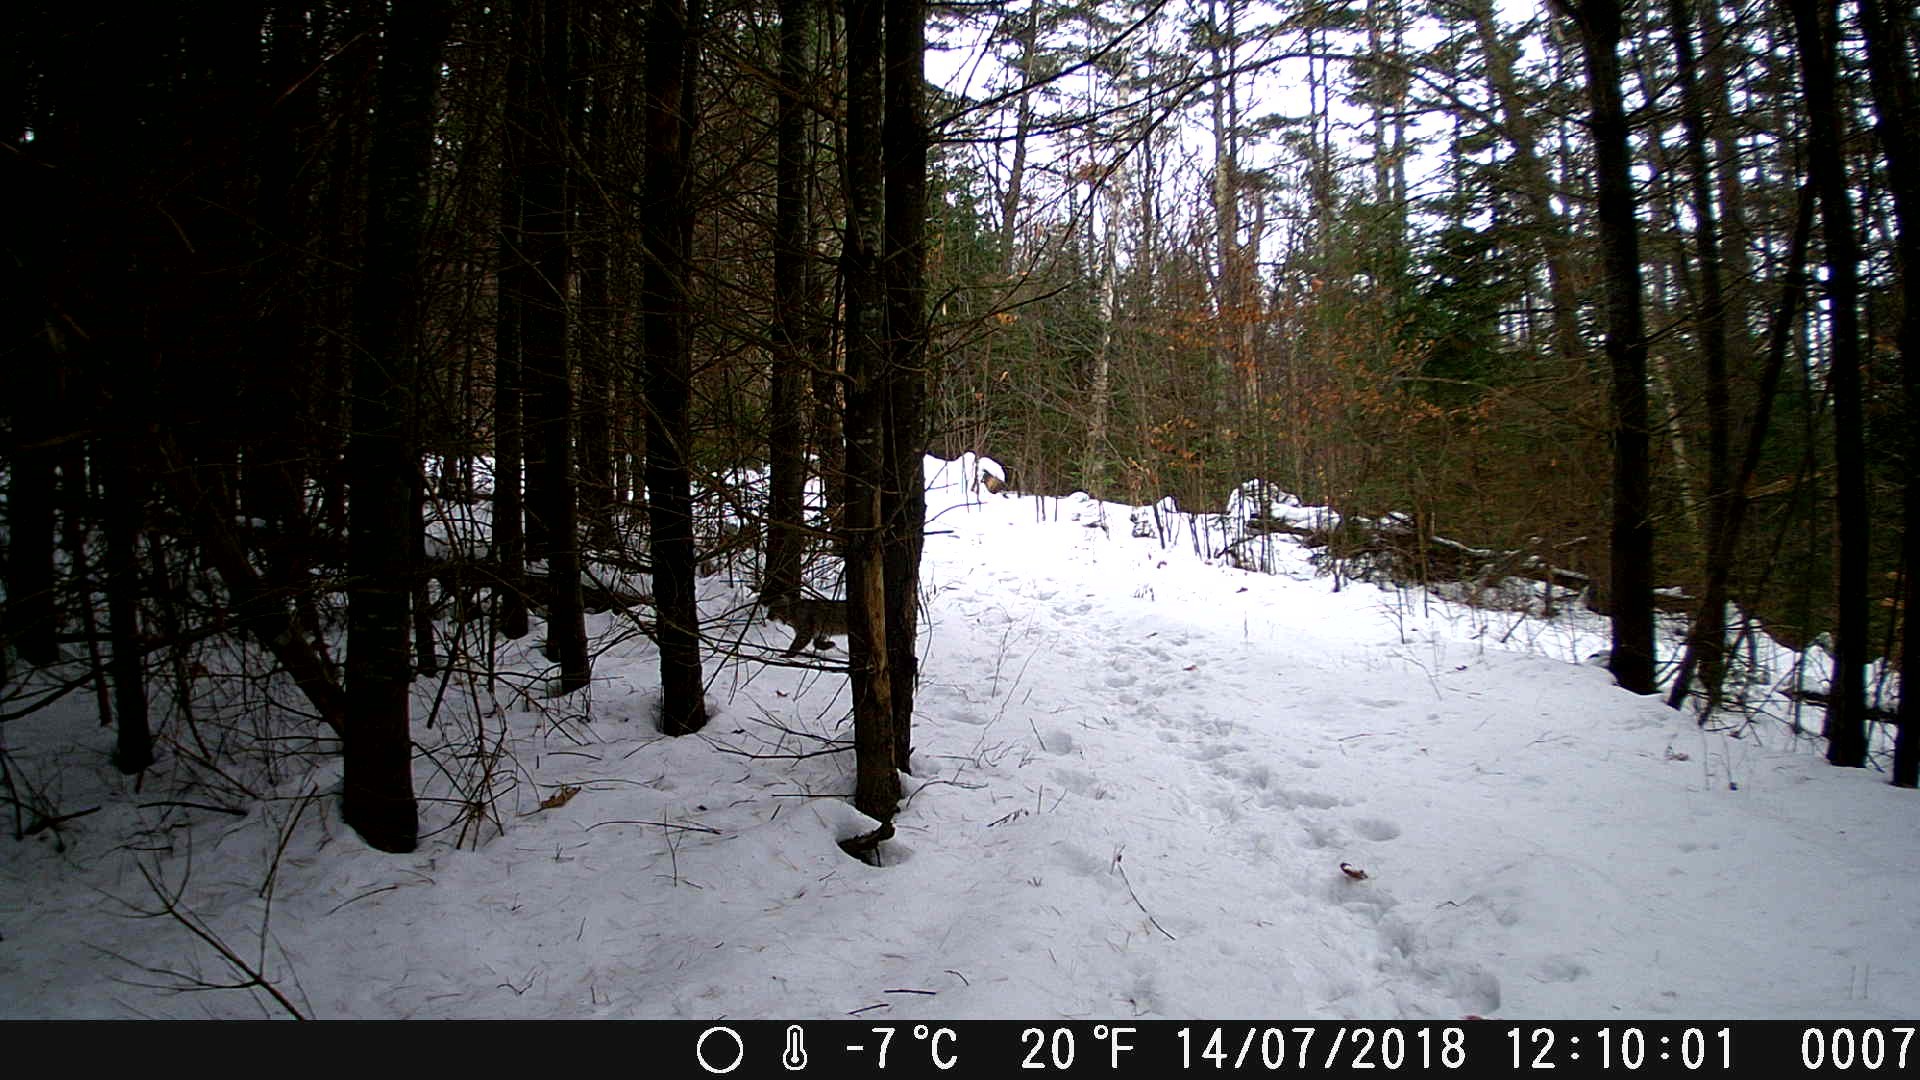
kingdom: Animalia
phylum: Chordata
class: Mammalia
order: Carnivora
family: Felidae
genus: Lynx
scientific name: Lynx rufus
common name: Bobcat
